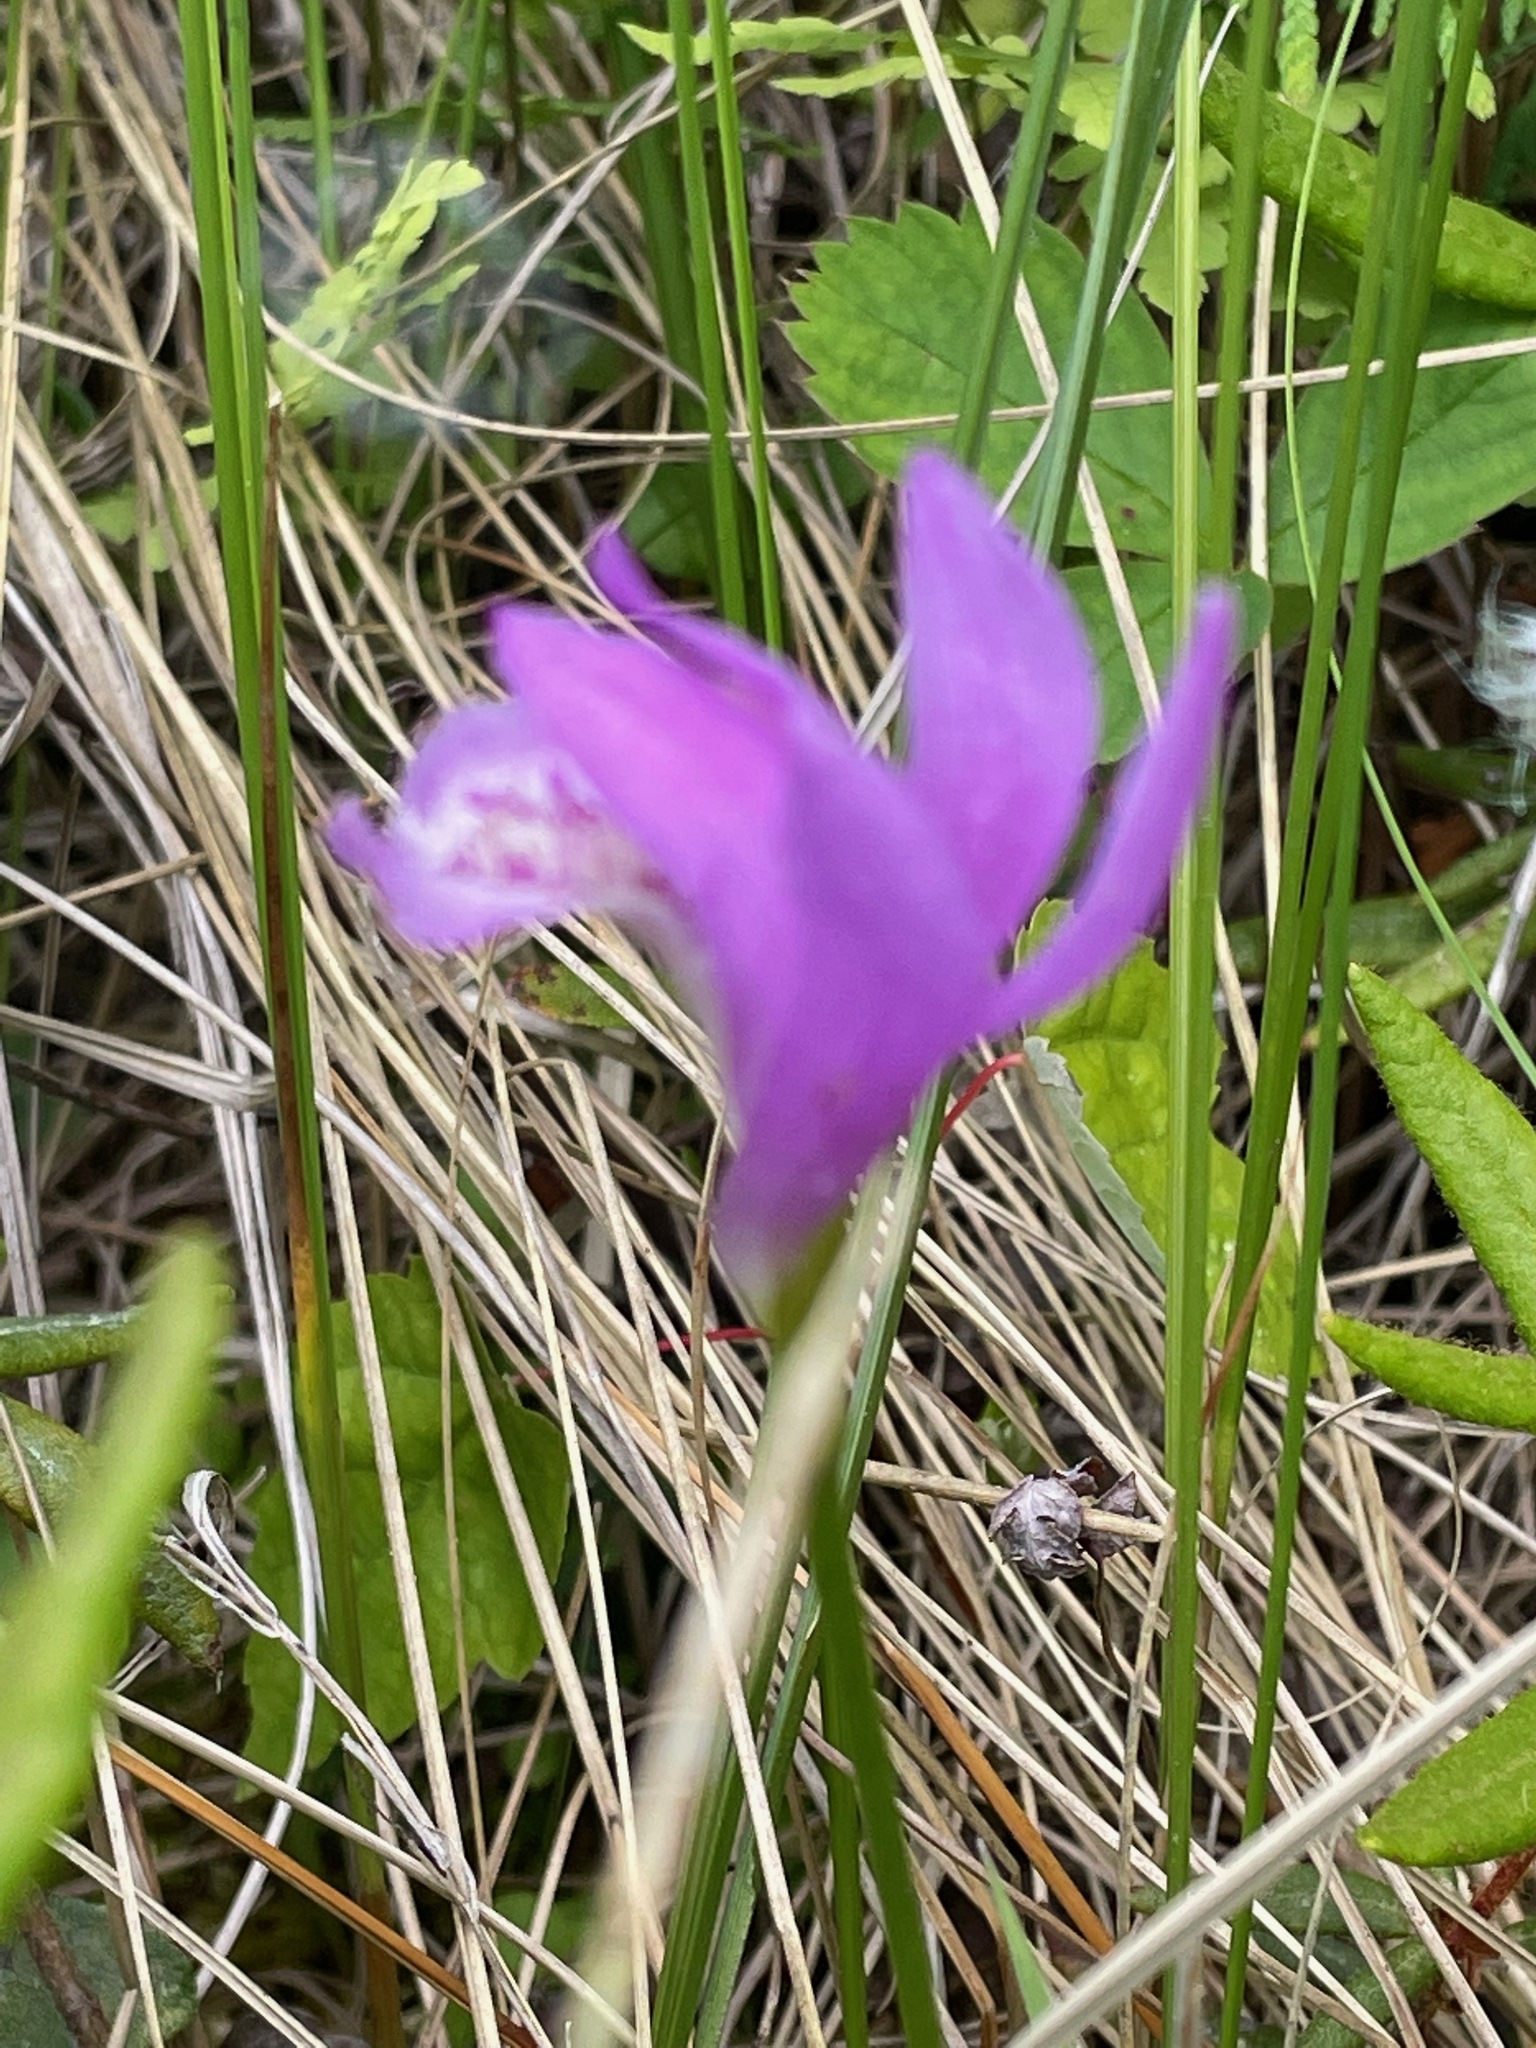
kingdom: Plantae
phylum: Tracheophyta
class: Liliopsida
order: Asparagales
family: Orchidaceae
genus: Arethusa
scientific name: Arethusa bulbosa
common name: Arethusa
